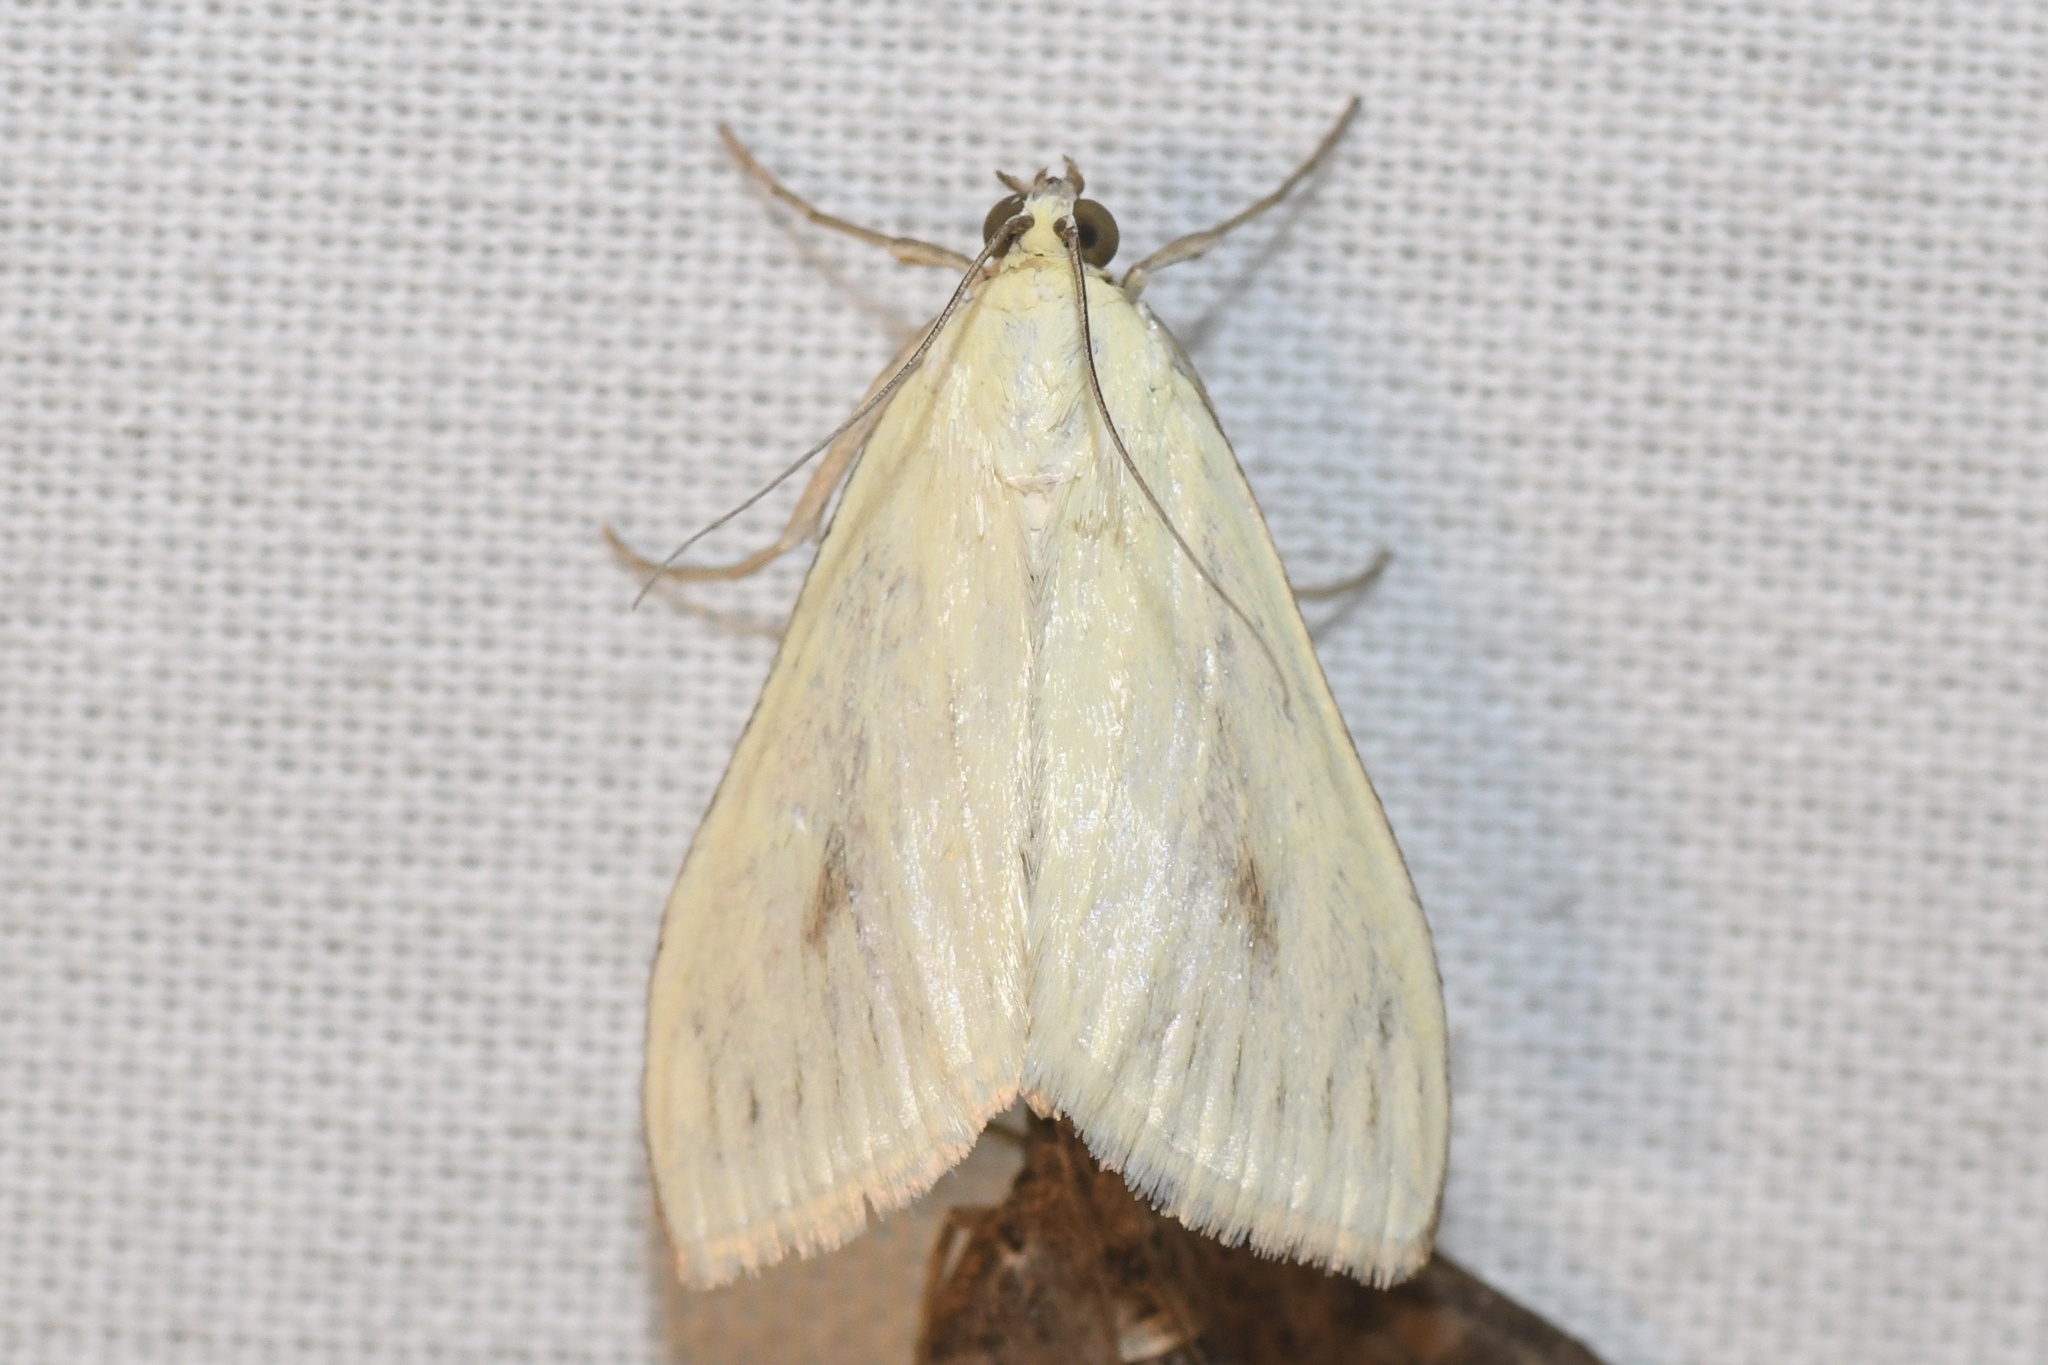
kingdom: Animalia
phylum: Arthropoda
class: Insecta
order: Lepidoptera
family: Crambidae
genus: Sitochroa
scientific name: Sitochroa palealis
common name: Greenish-yellow sitochroa moth
